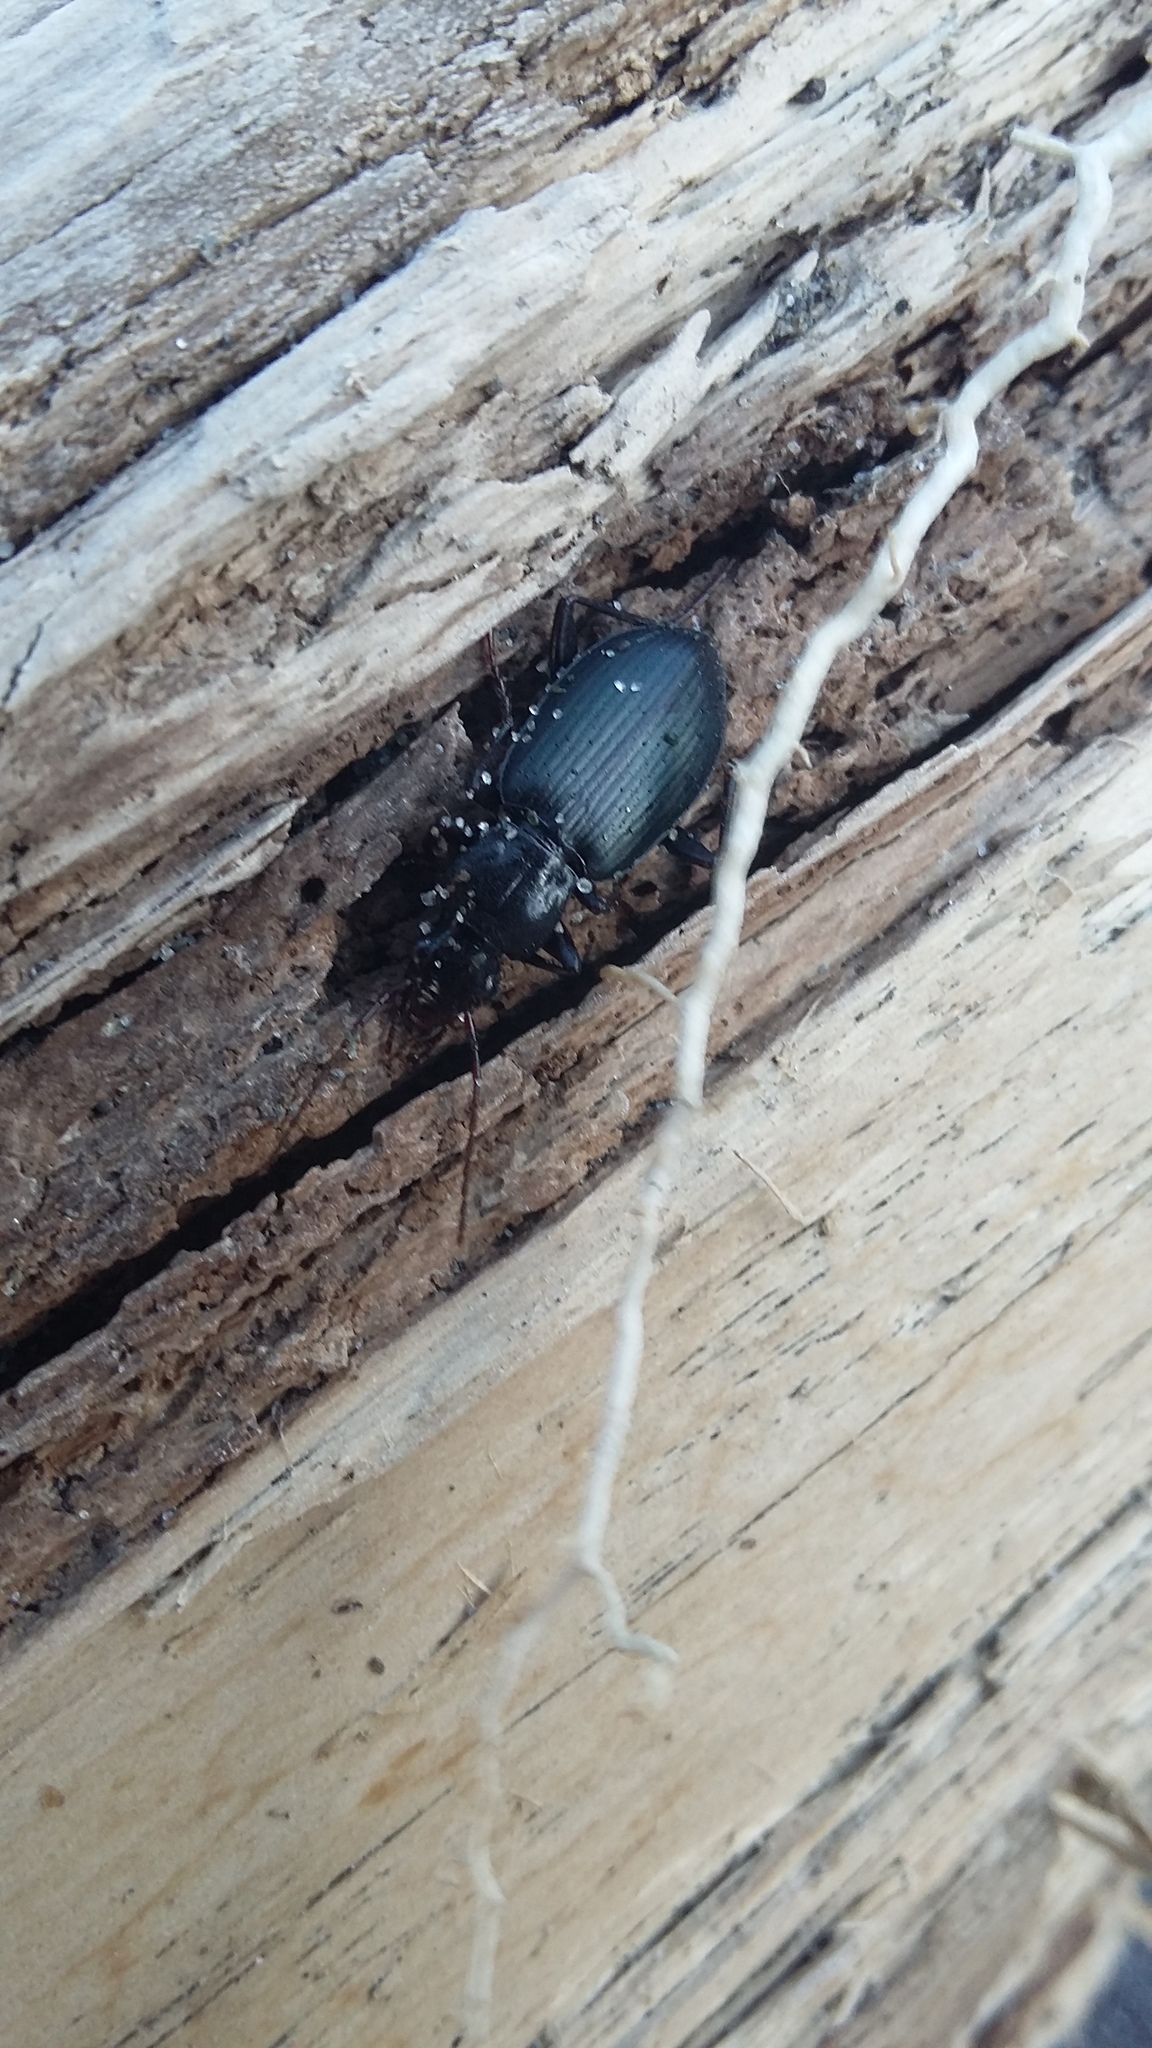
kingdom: Animalia
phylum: Arthropoda
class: Insecta
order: Coleoptera
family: Carabidae
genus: Laemostenus
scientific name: Laemostenus complanatus
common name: Cosmopolitan ground beetle
